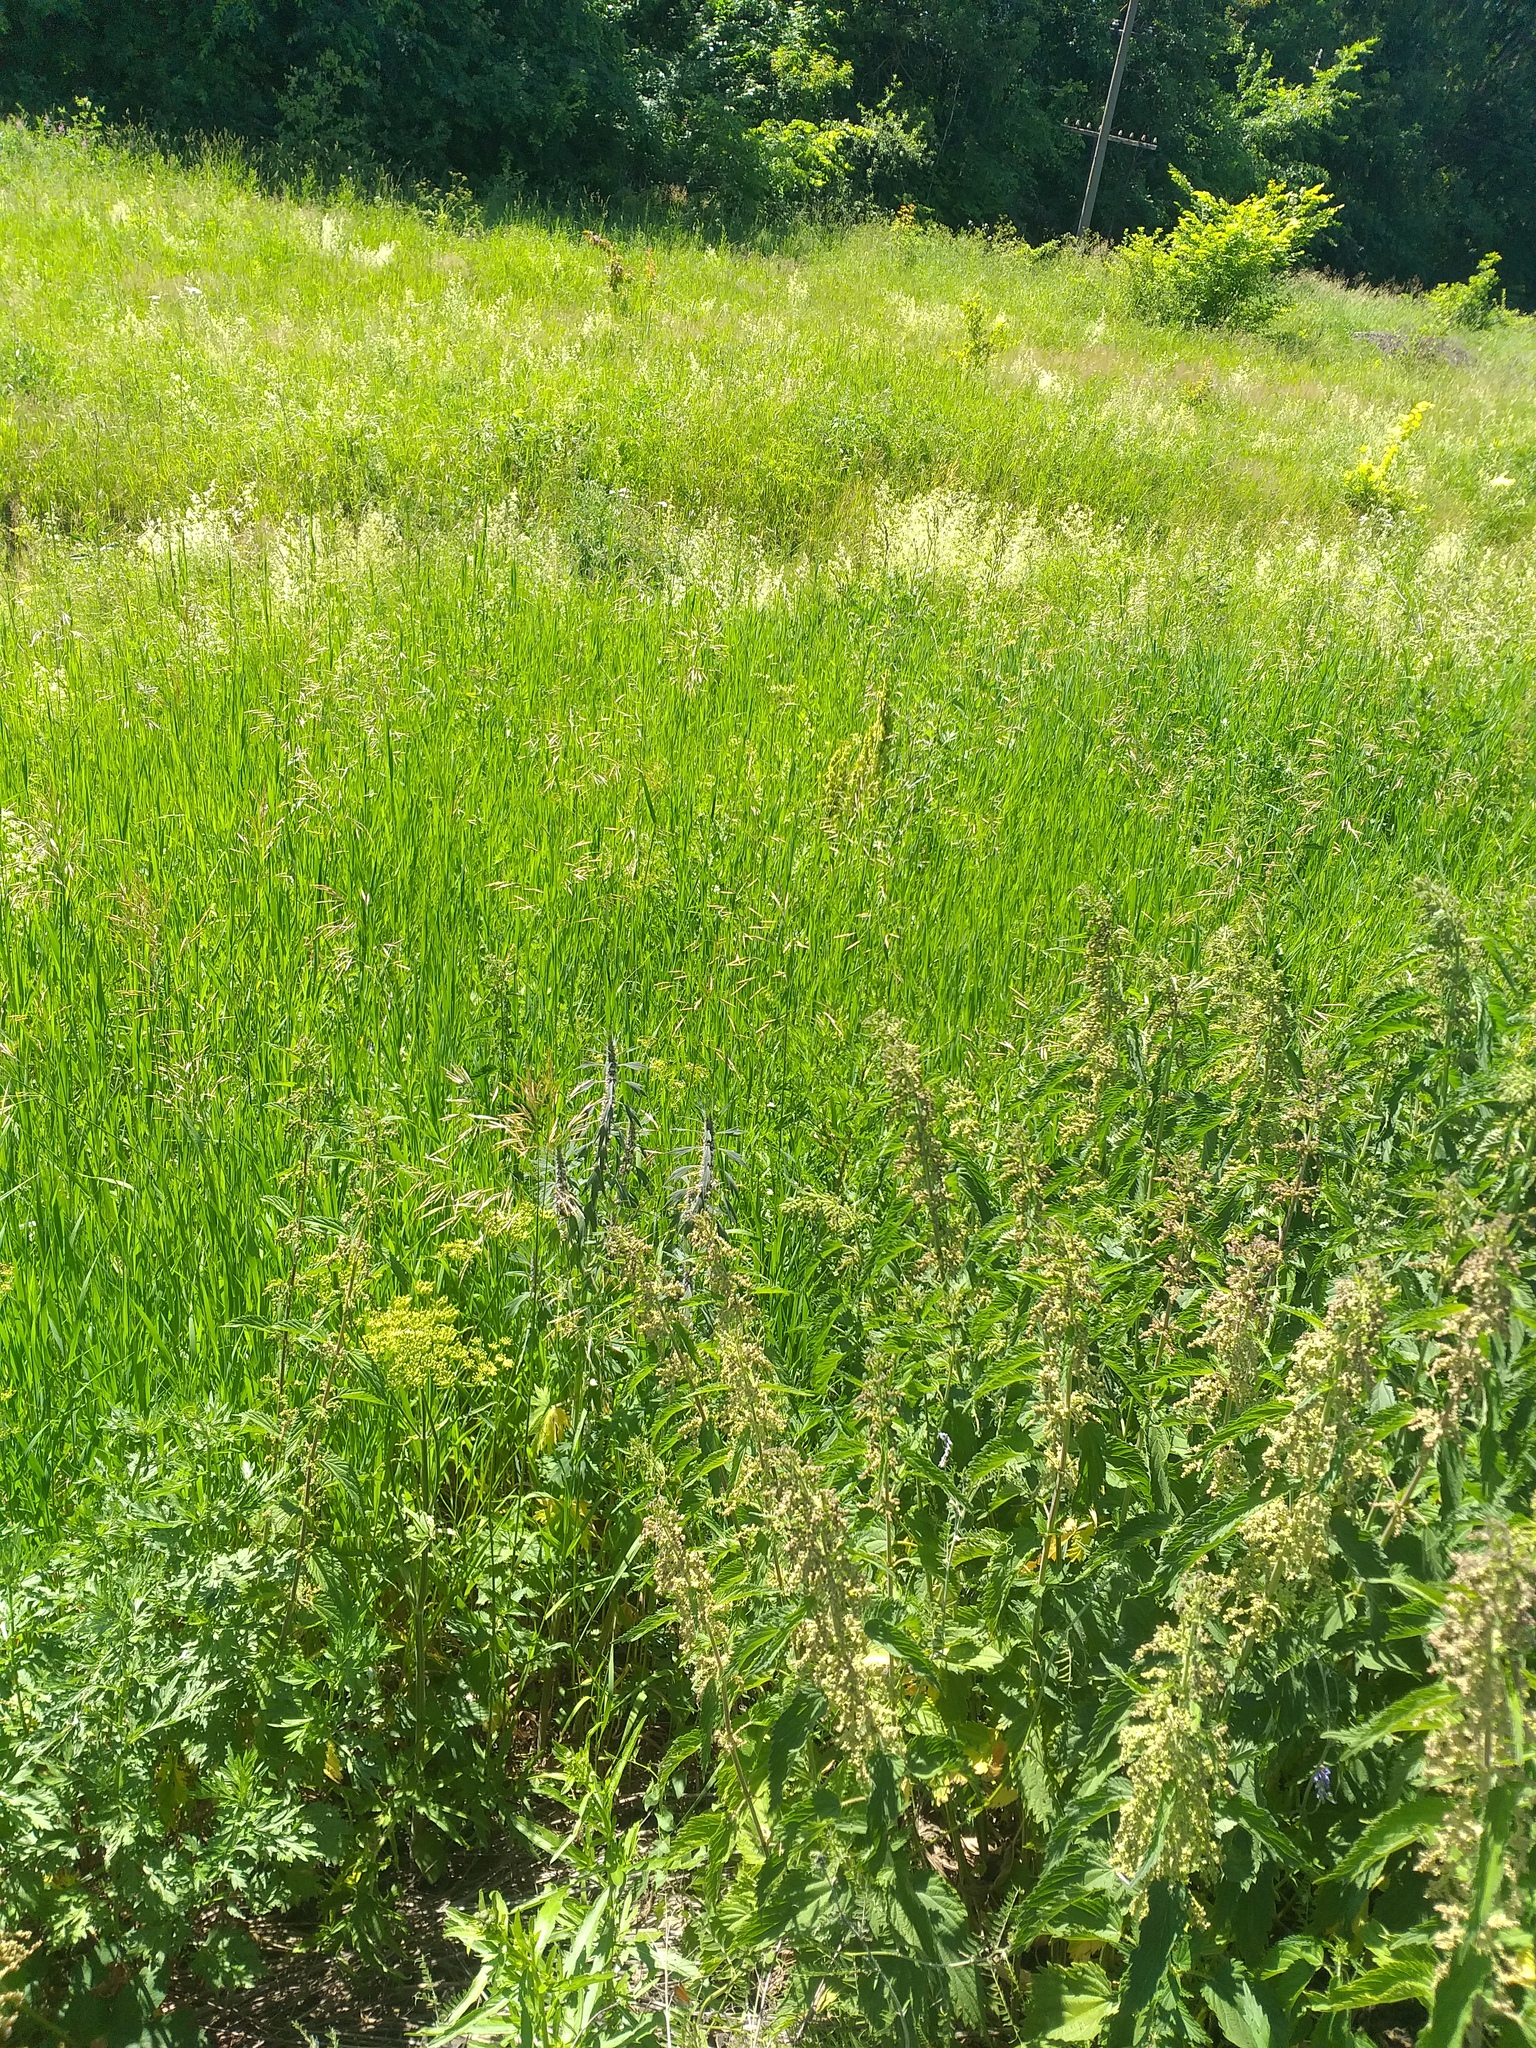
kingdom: Plantae
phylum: Tracheophyta
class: Magnoliopsida
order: Lamiales
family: Lamiaceae
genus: Leonurus
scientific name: Leonurus quinquelobatus
